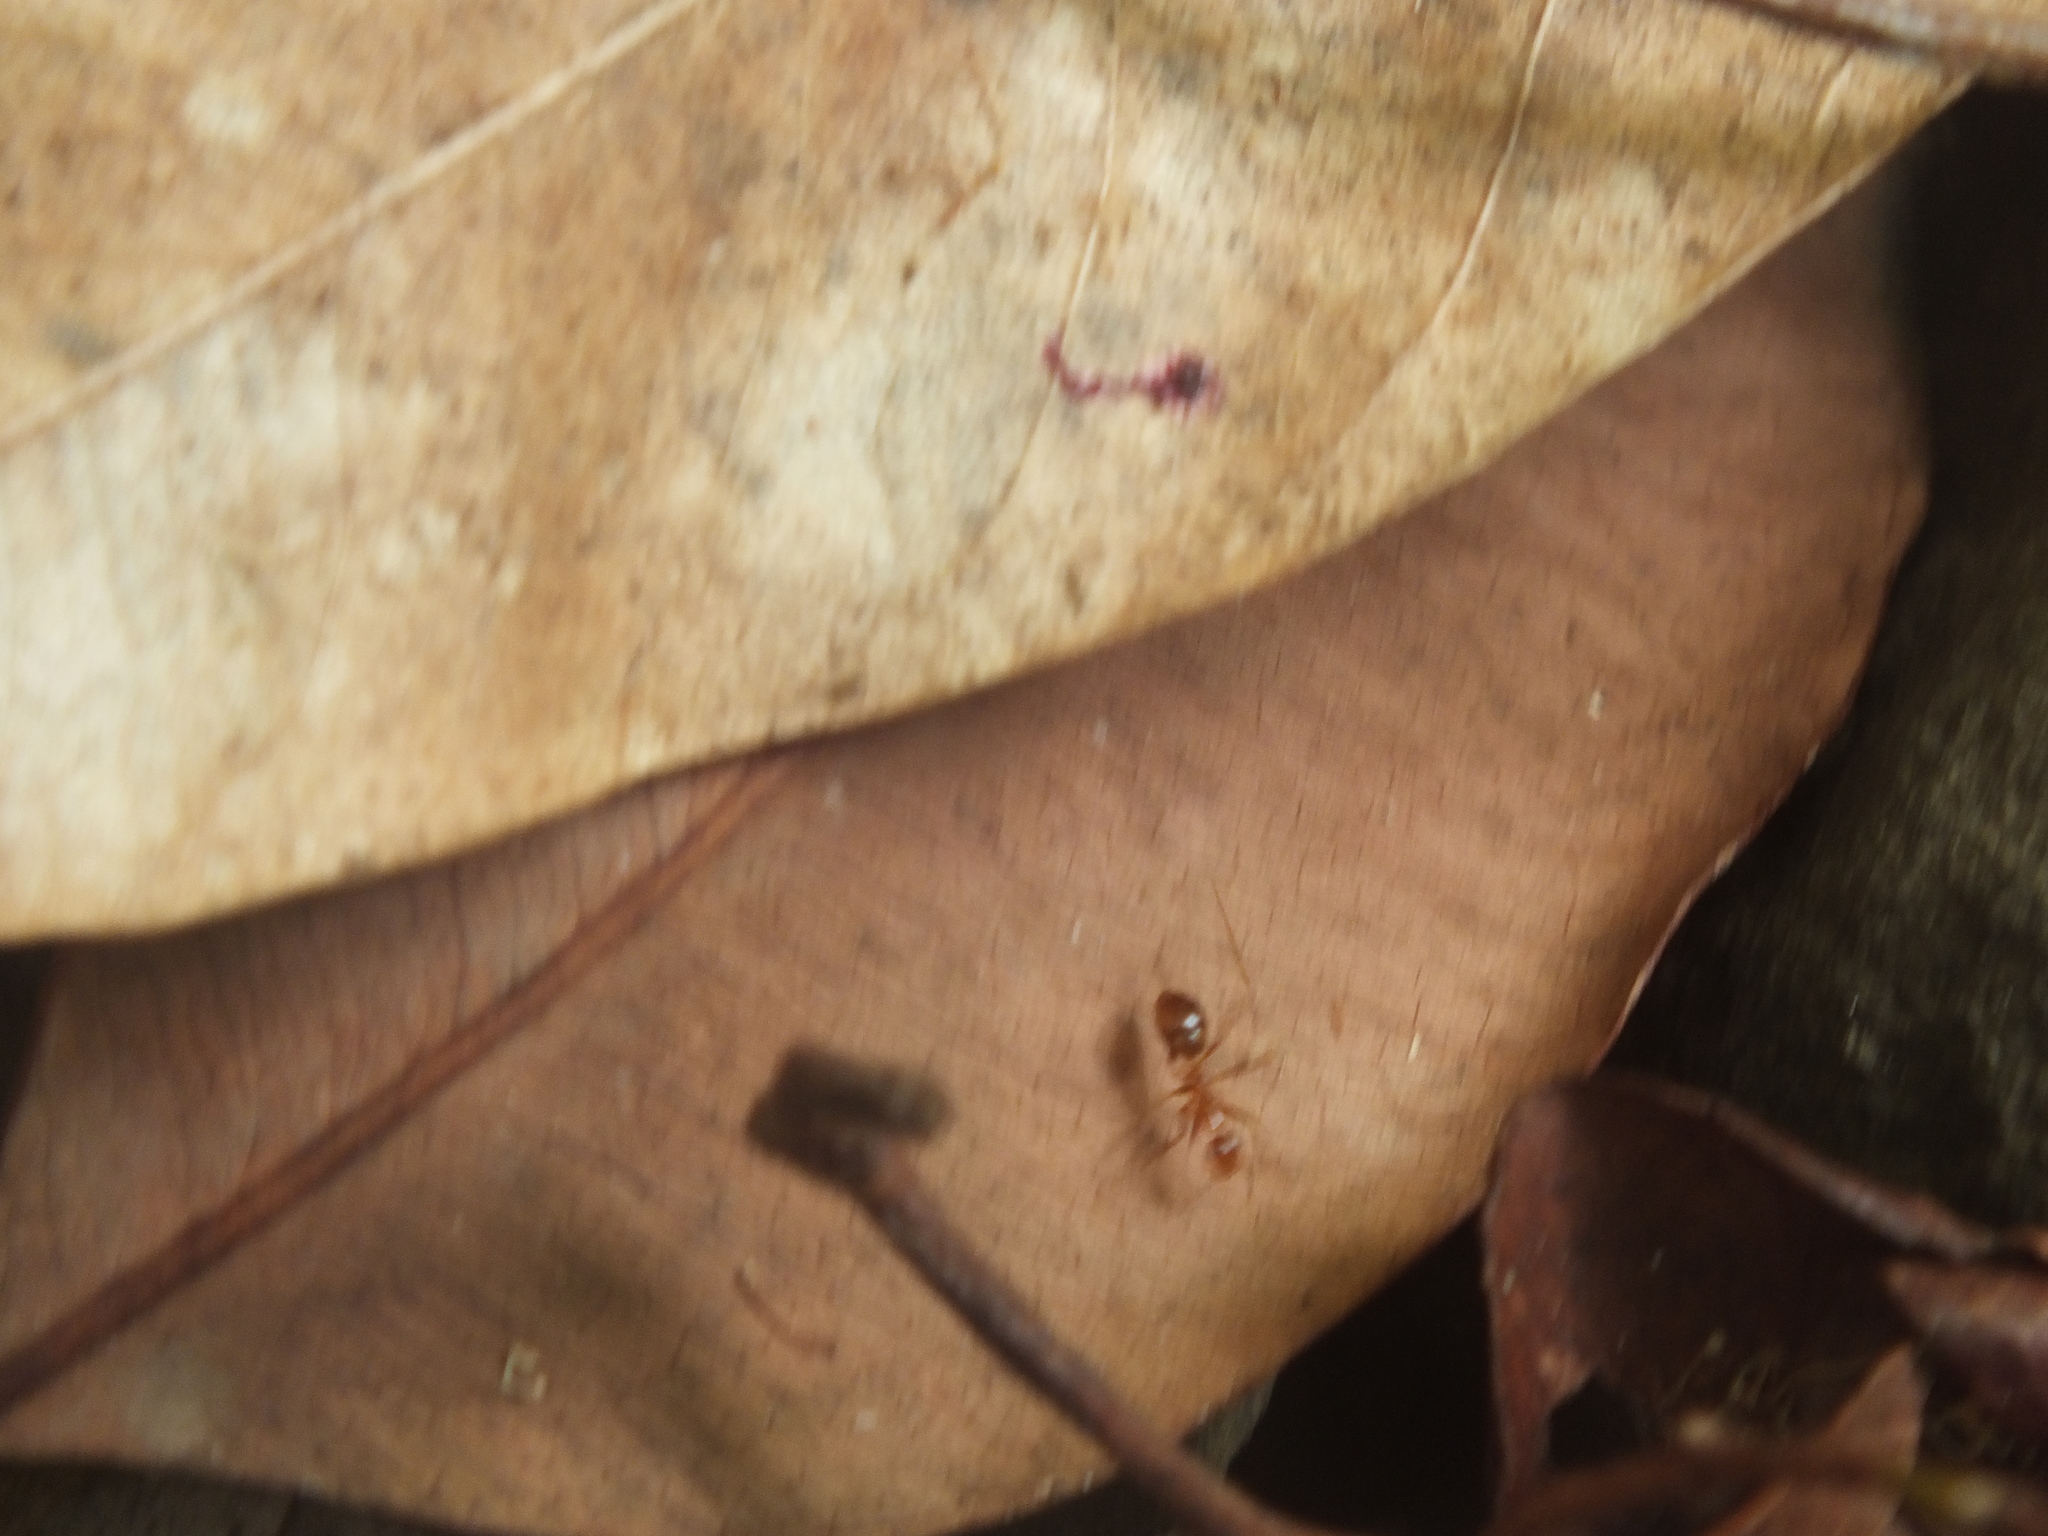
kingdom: Animalia
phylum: Arthropoda
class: Insecta
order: Hymenoptera
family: Formicidae
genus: Anoplolepis
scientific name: Anoplolepis gracilipes
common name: Ant
